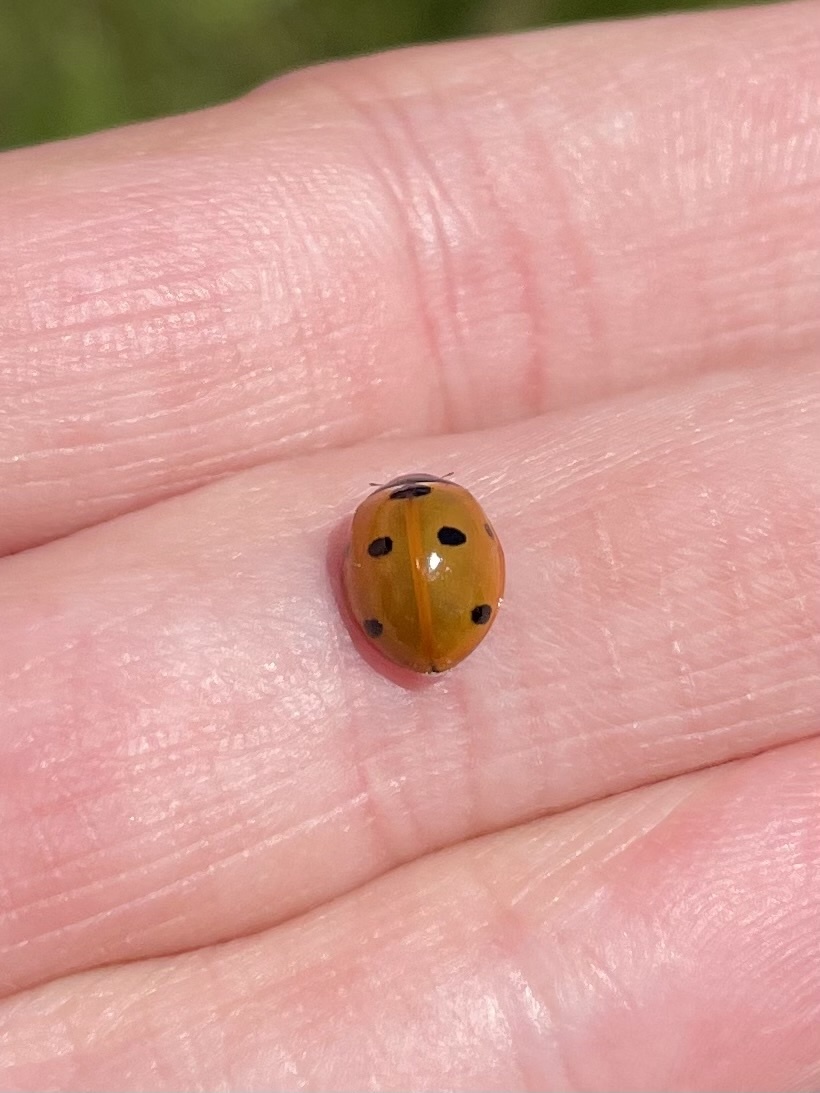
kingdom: Animalia
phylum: Arthropoda
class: Insecta
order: Coleoptera
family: Coccinellidae
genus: Coccinella
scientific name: Coccinella septempunctata
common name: Sevenspotted lady beetle
